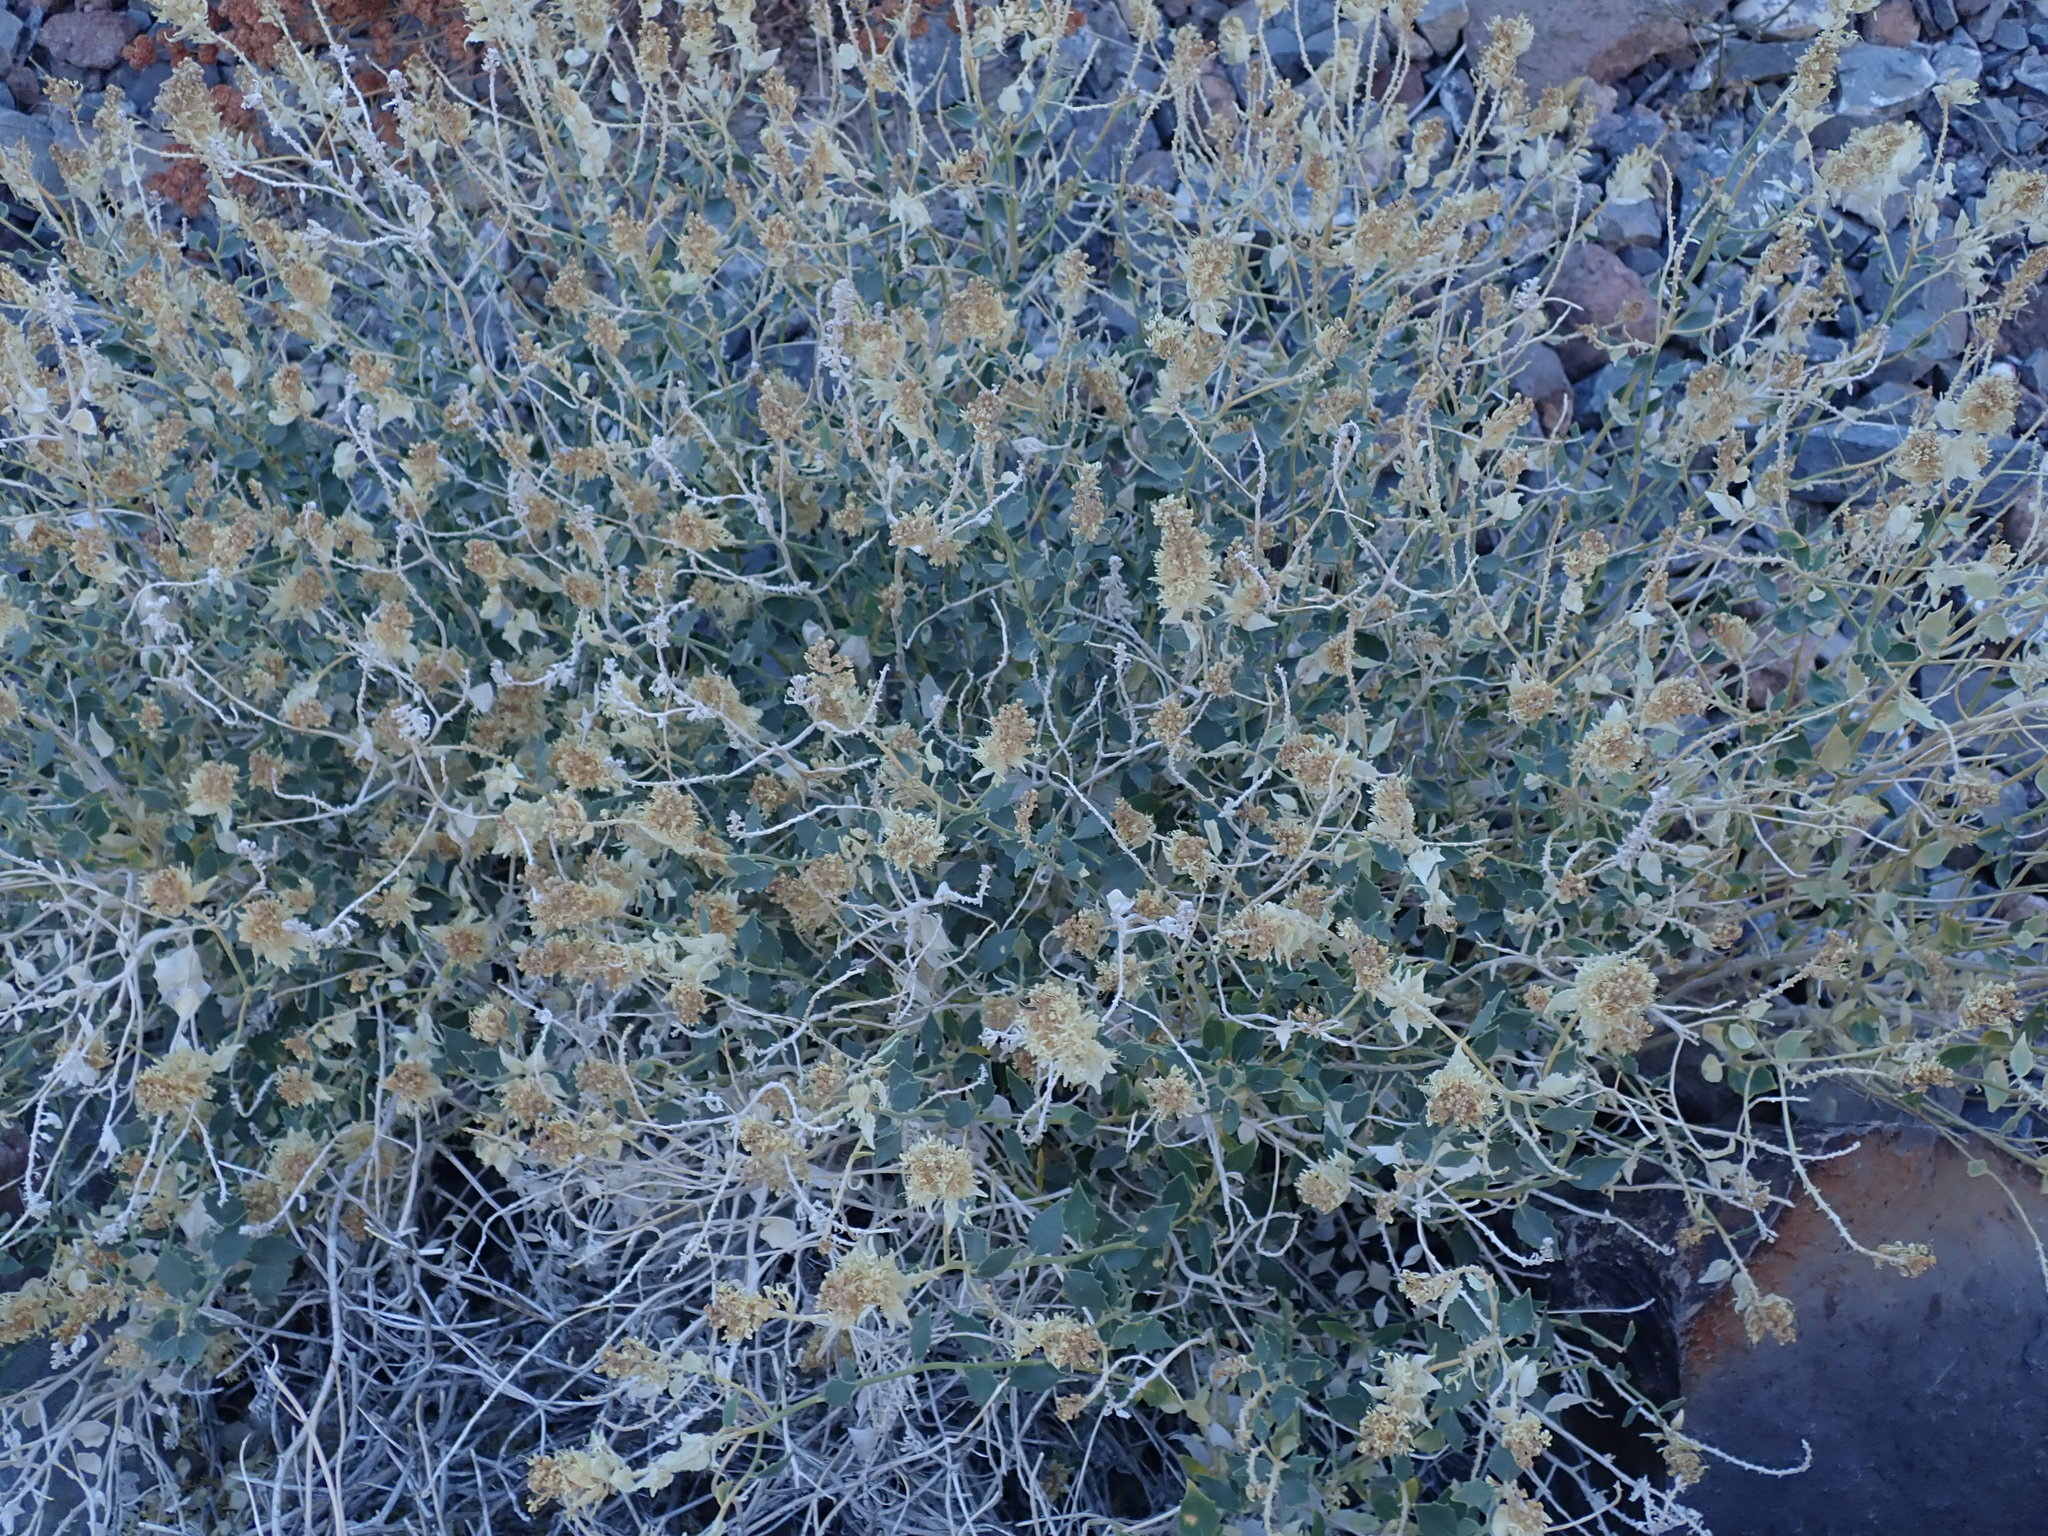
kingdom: Plantae
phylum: Tracheophyta
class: Magnoliopsida
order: Cornales
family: Loasaceae
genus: Petalonyx
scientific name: Petalonyx nitidus
